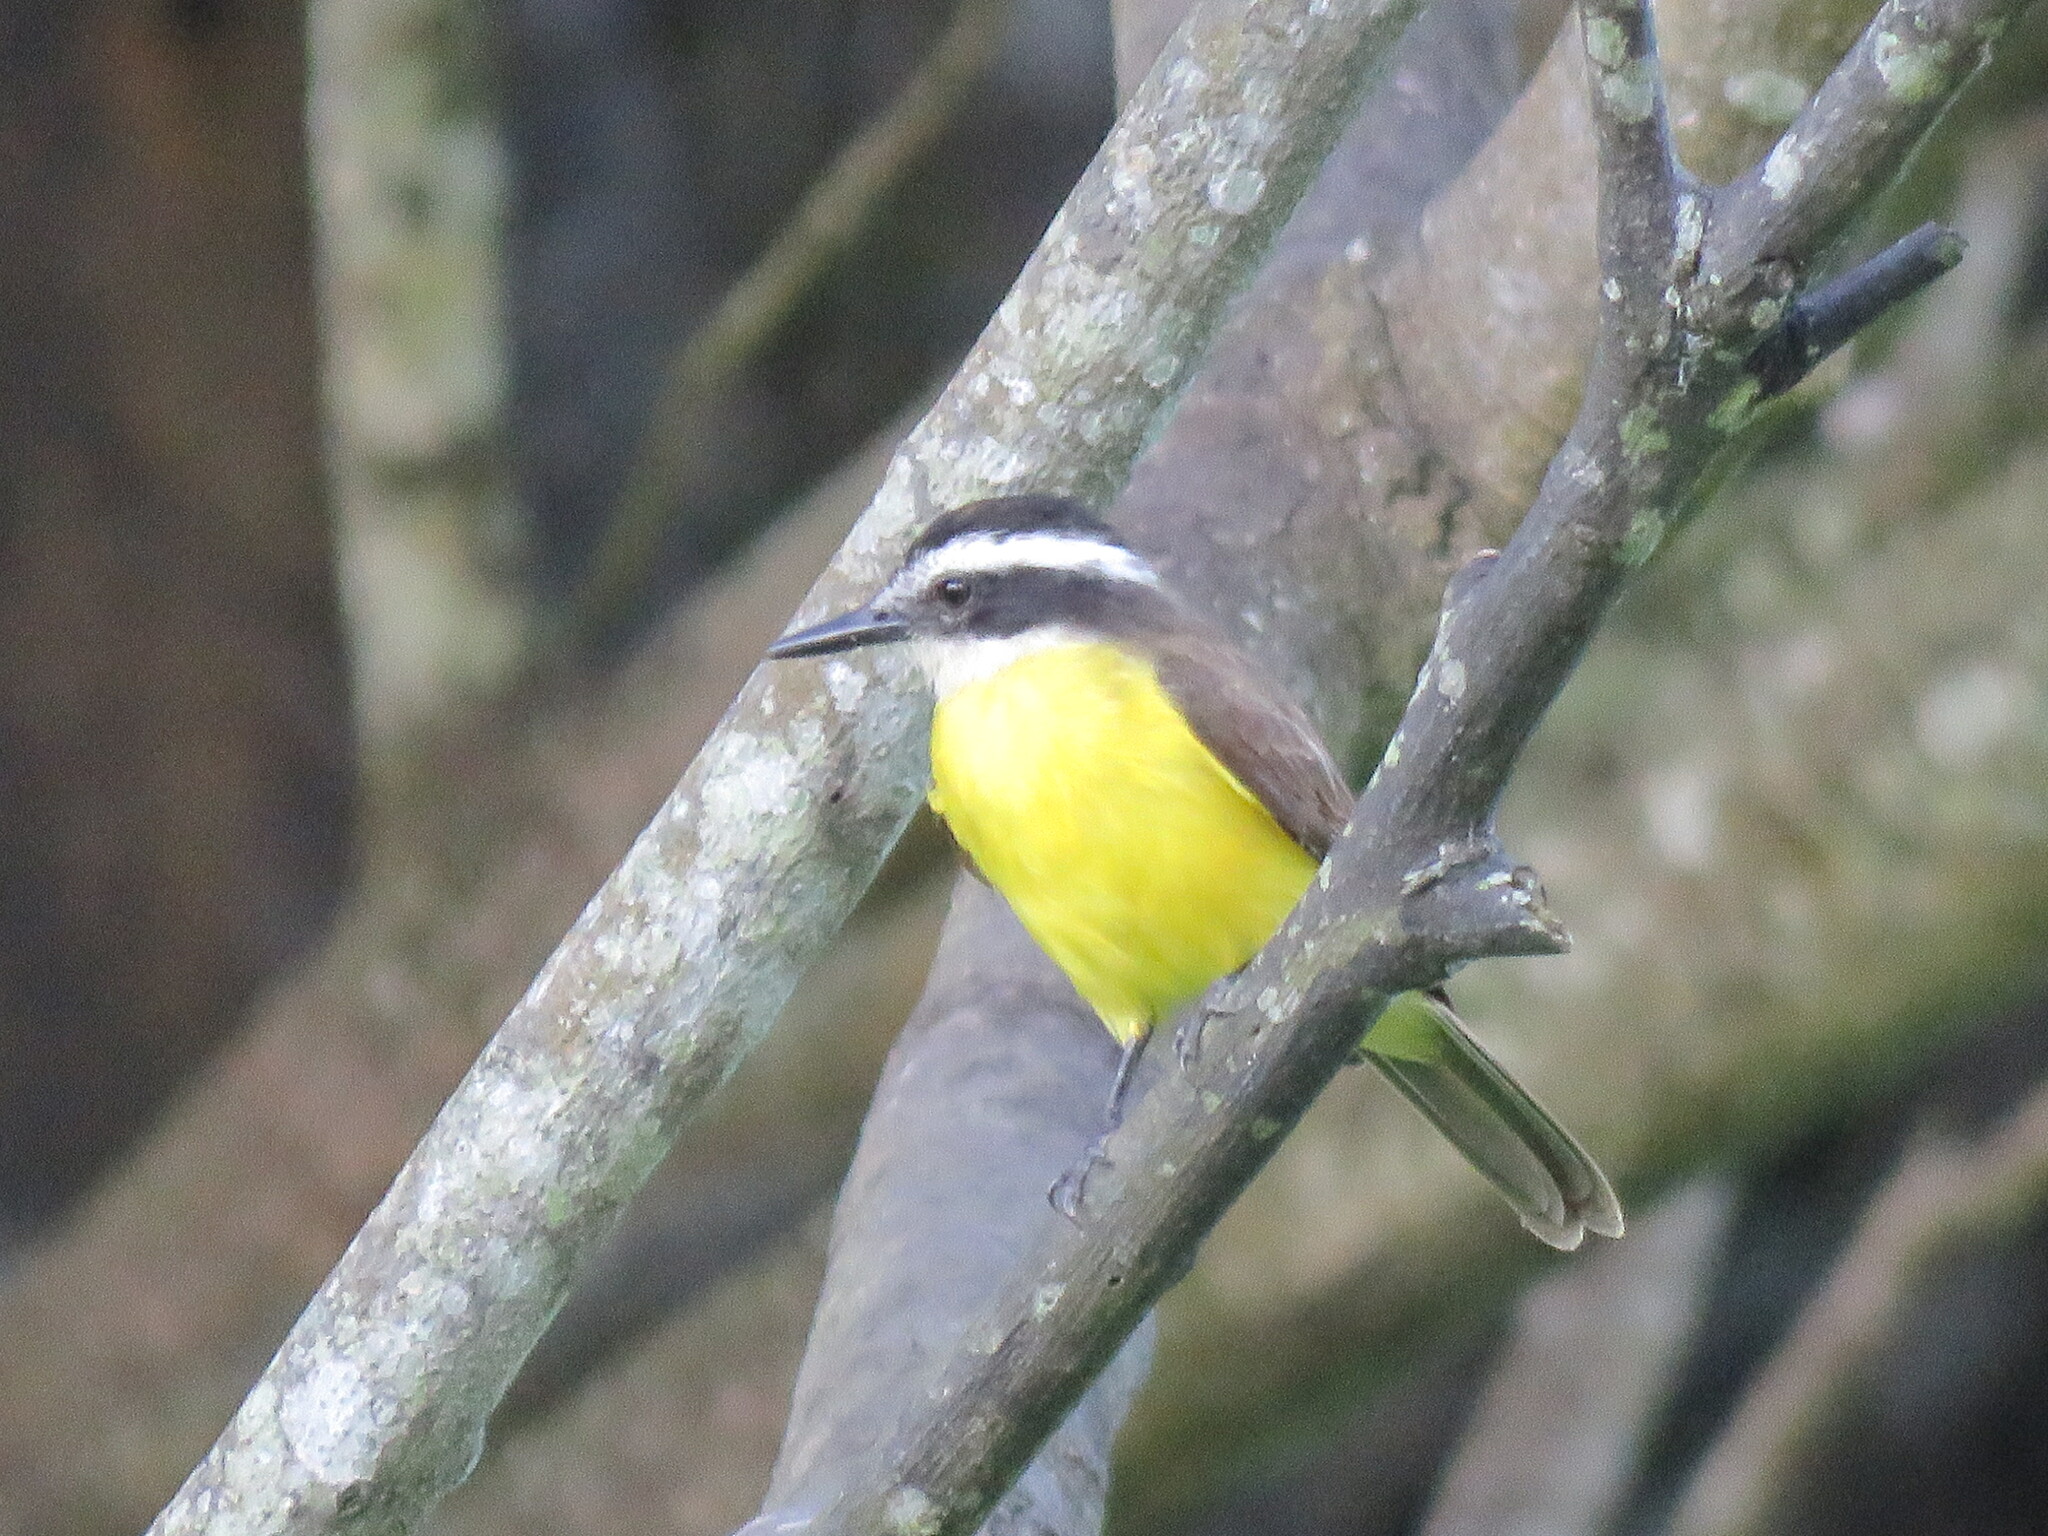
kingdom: Animalia
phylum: Chordata
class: Aves
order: Passeriformes
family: Tyrannidae
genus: Pitangus
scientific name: Pitangus lictor
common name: Lesser kiskadee
